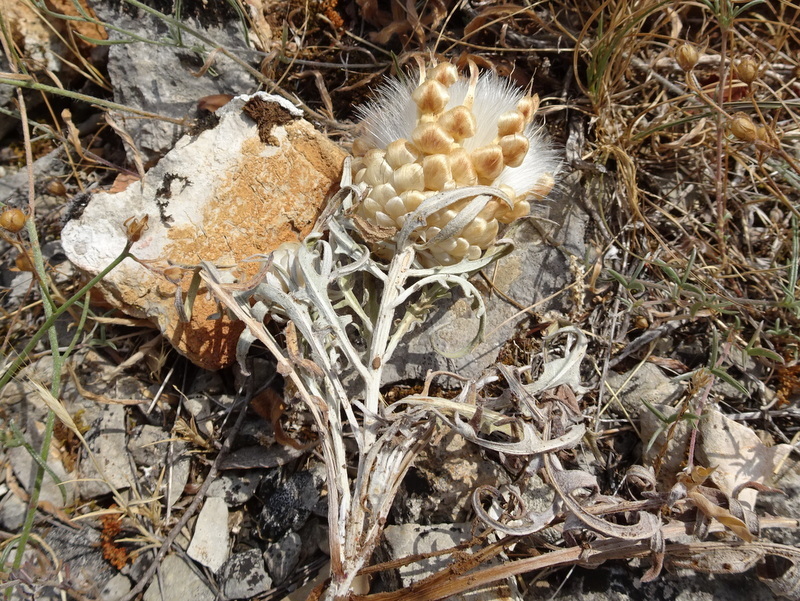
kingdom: Plantae
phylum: Tracheophyta
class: Magnoliopsida
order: Asterales
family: Asteraceae
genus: Leuzea
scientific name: Leuzea conifera
